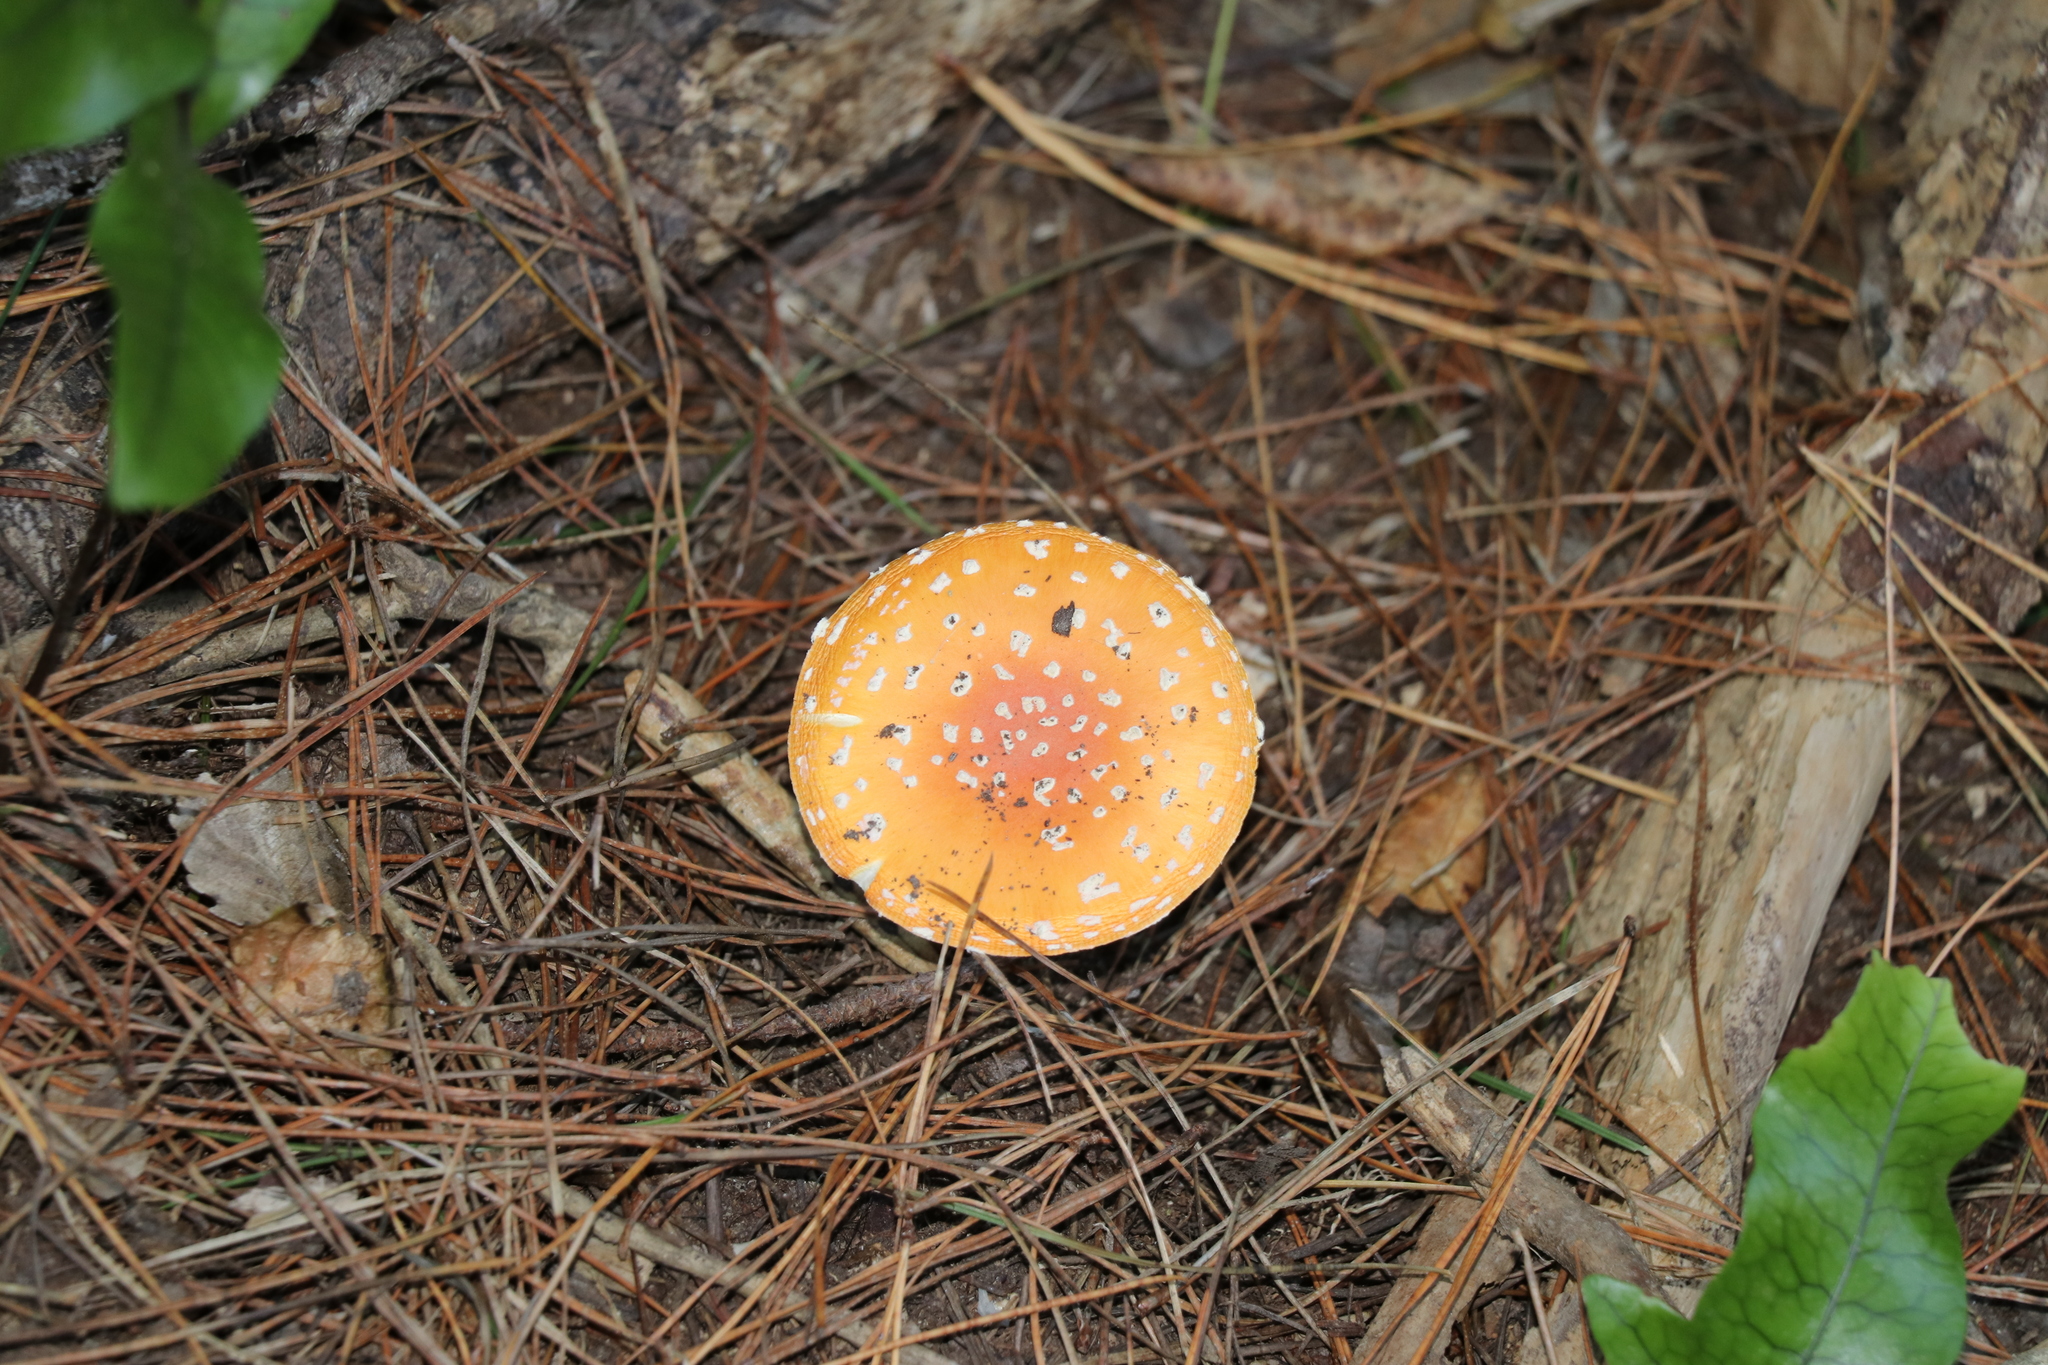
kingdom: Fungi
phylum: Basidiomycota
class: Agaricomycetes
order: Agaricales
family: Amanitaceae
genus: Amanita
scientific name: Amanita muscaria
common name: Fly agaric
